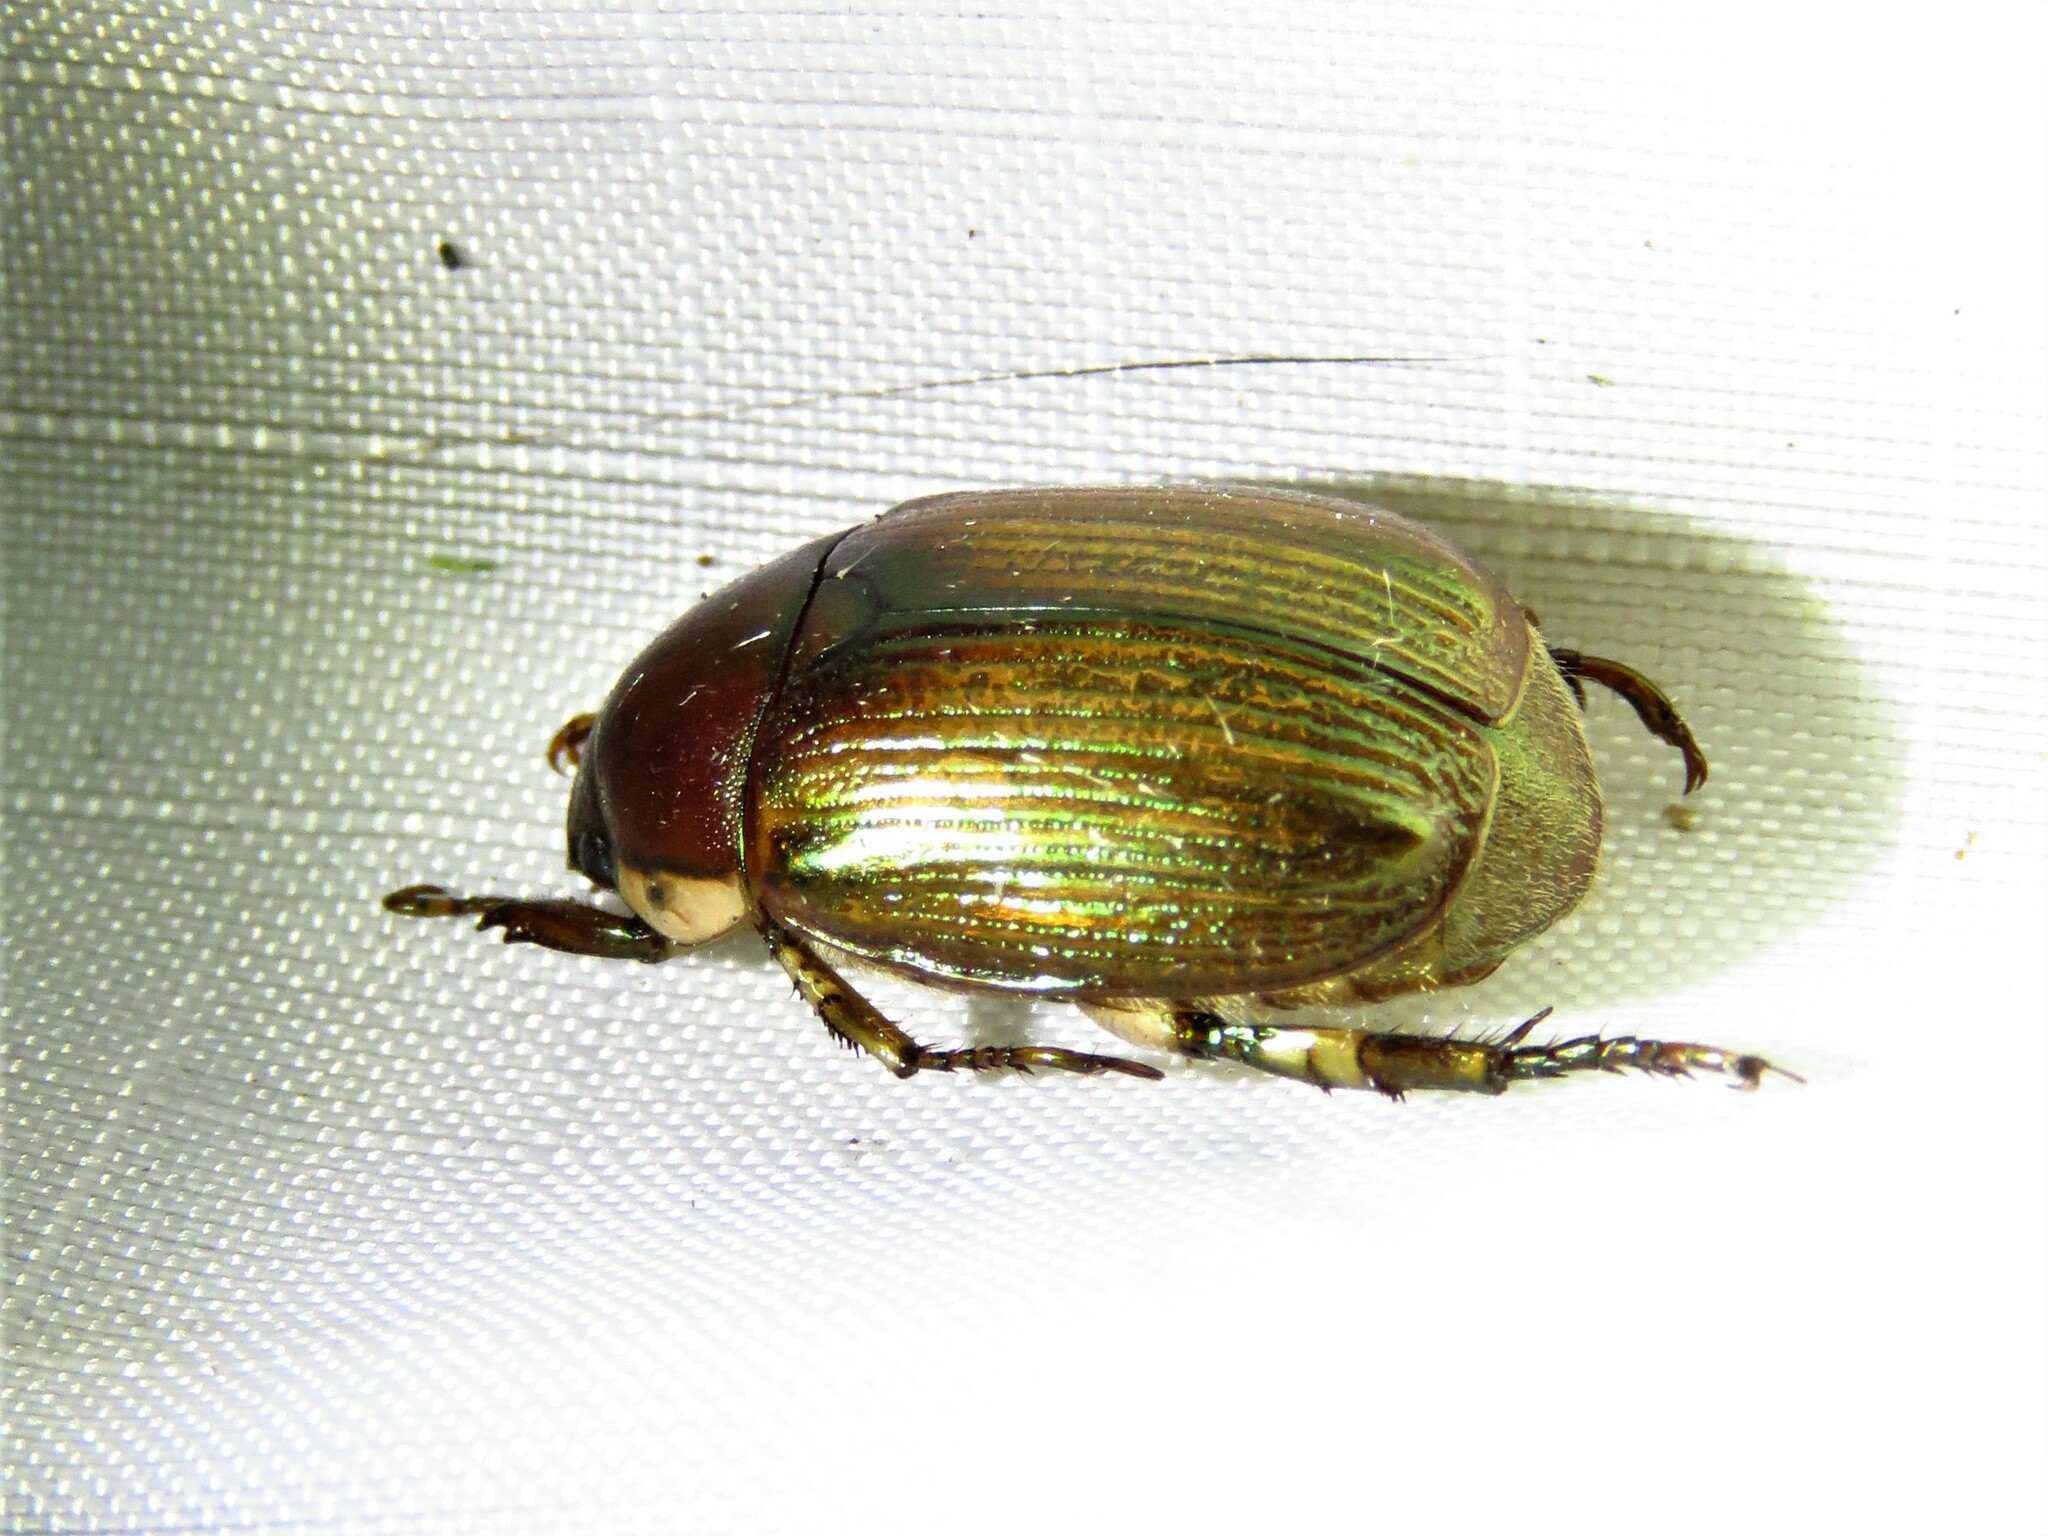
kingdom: Animalia
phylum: Arthropoda
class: Insecta
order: Coleoptera
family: Scarabaeidae
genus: Callistethus
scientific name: Callistethus marginatus
